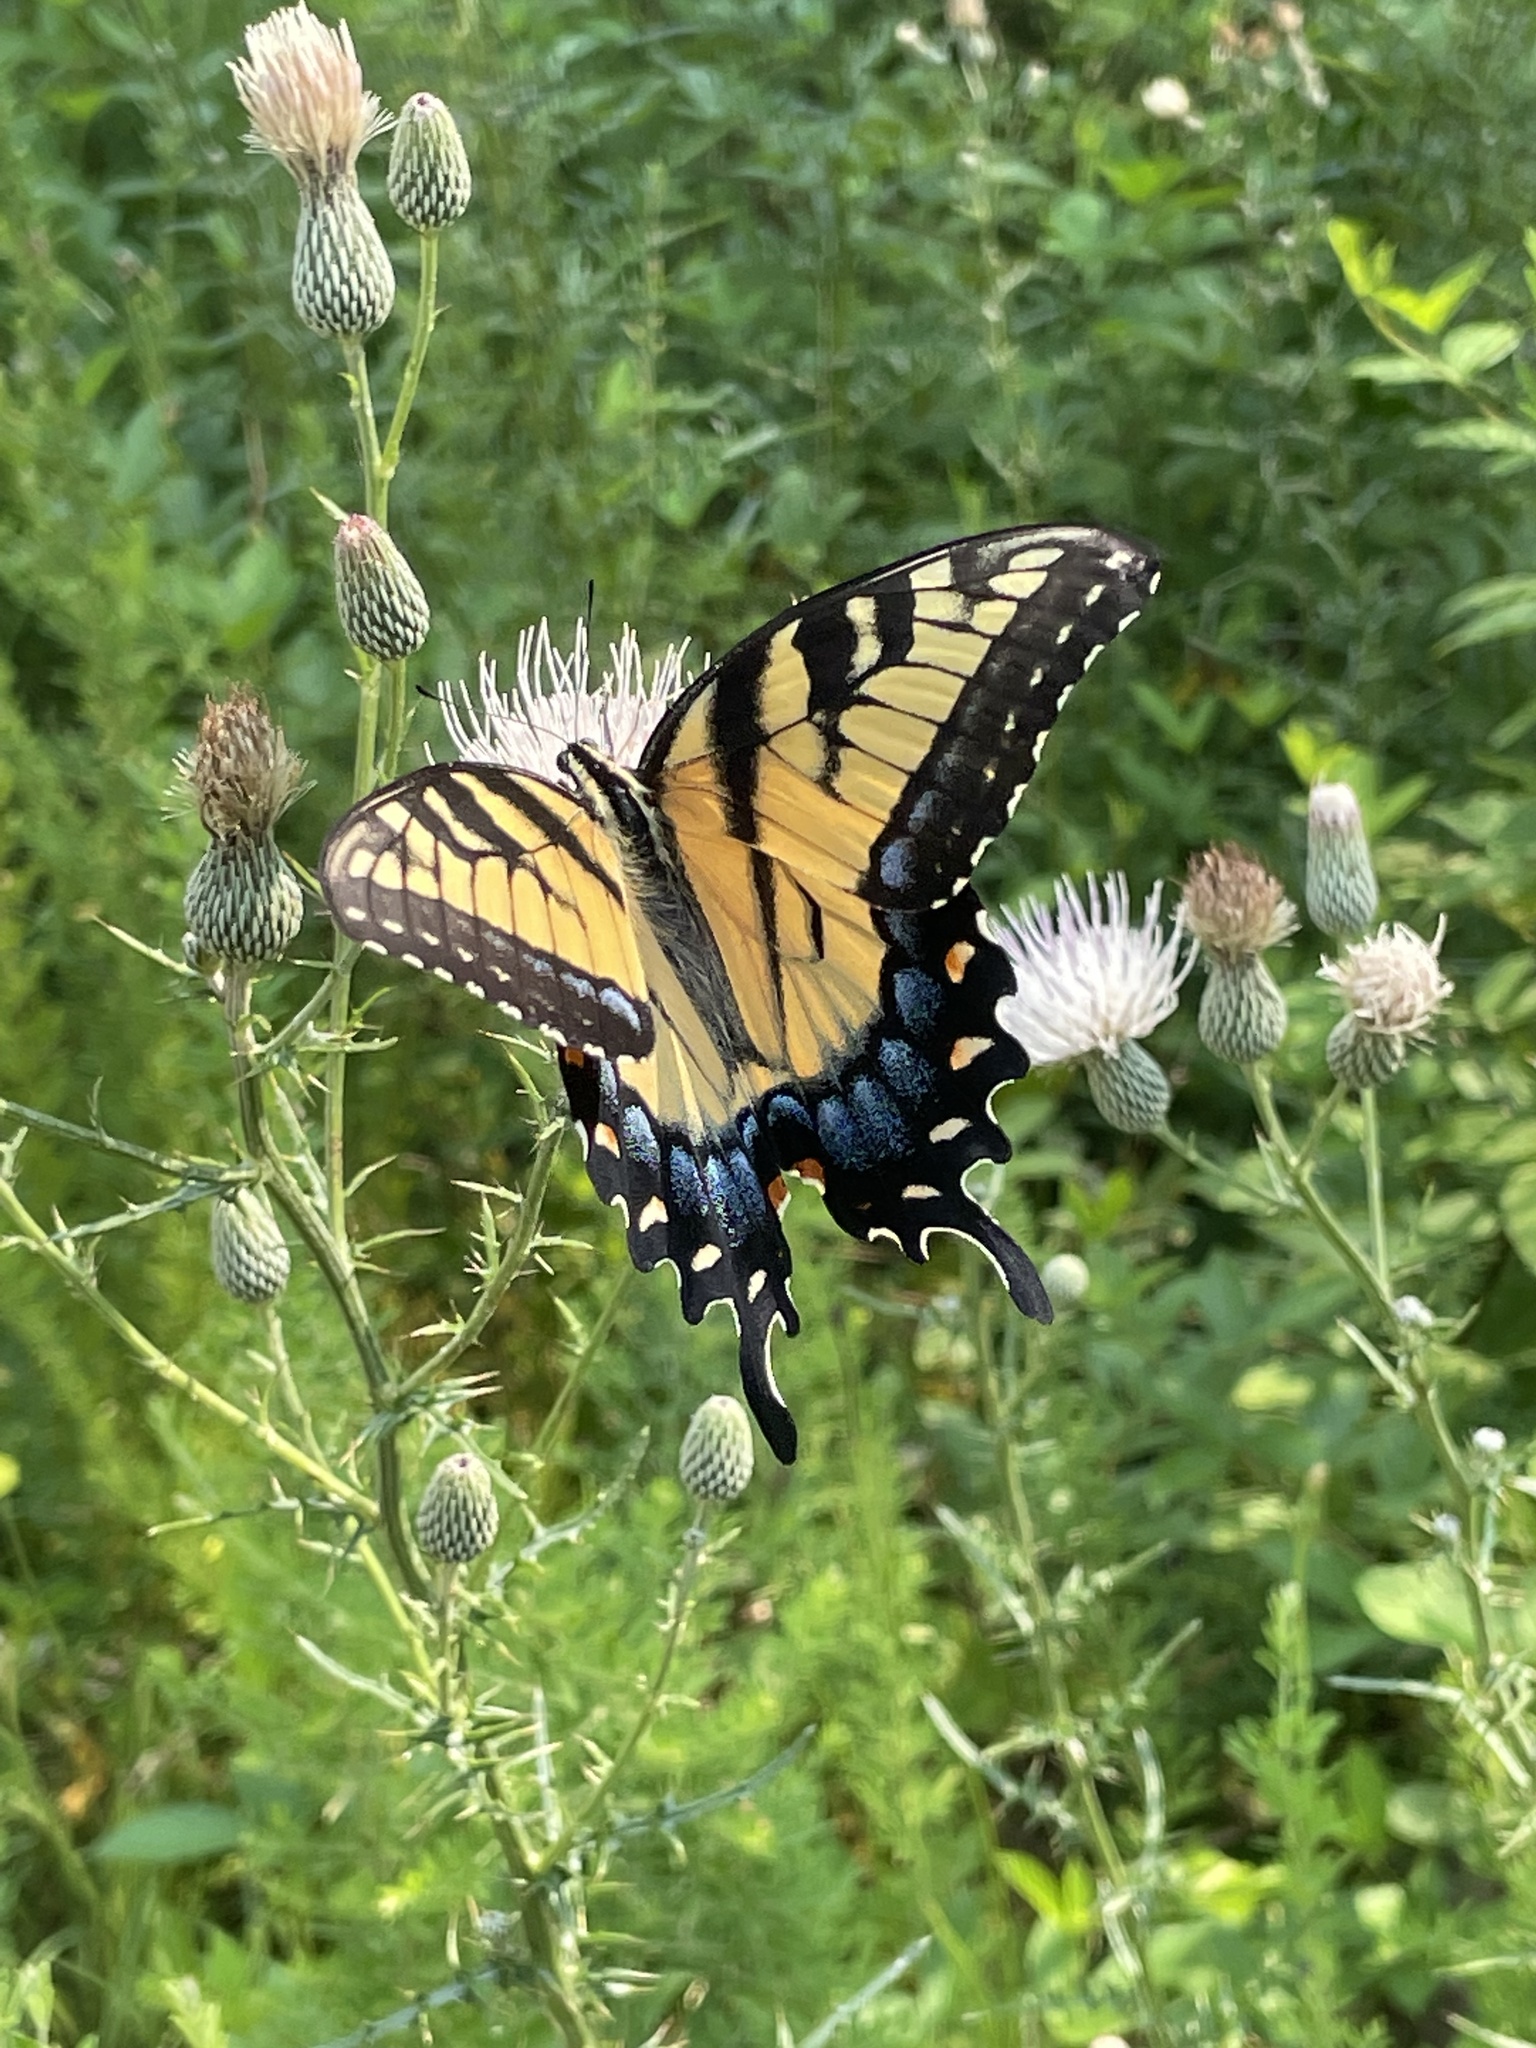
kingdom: Animalia
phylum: Arthropoda
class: Insecta
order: Lepidoptera
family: Papilionidae
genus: Papilio
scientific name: Papilio glaucus
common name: Tiger swallowtail
